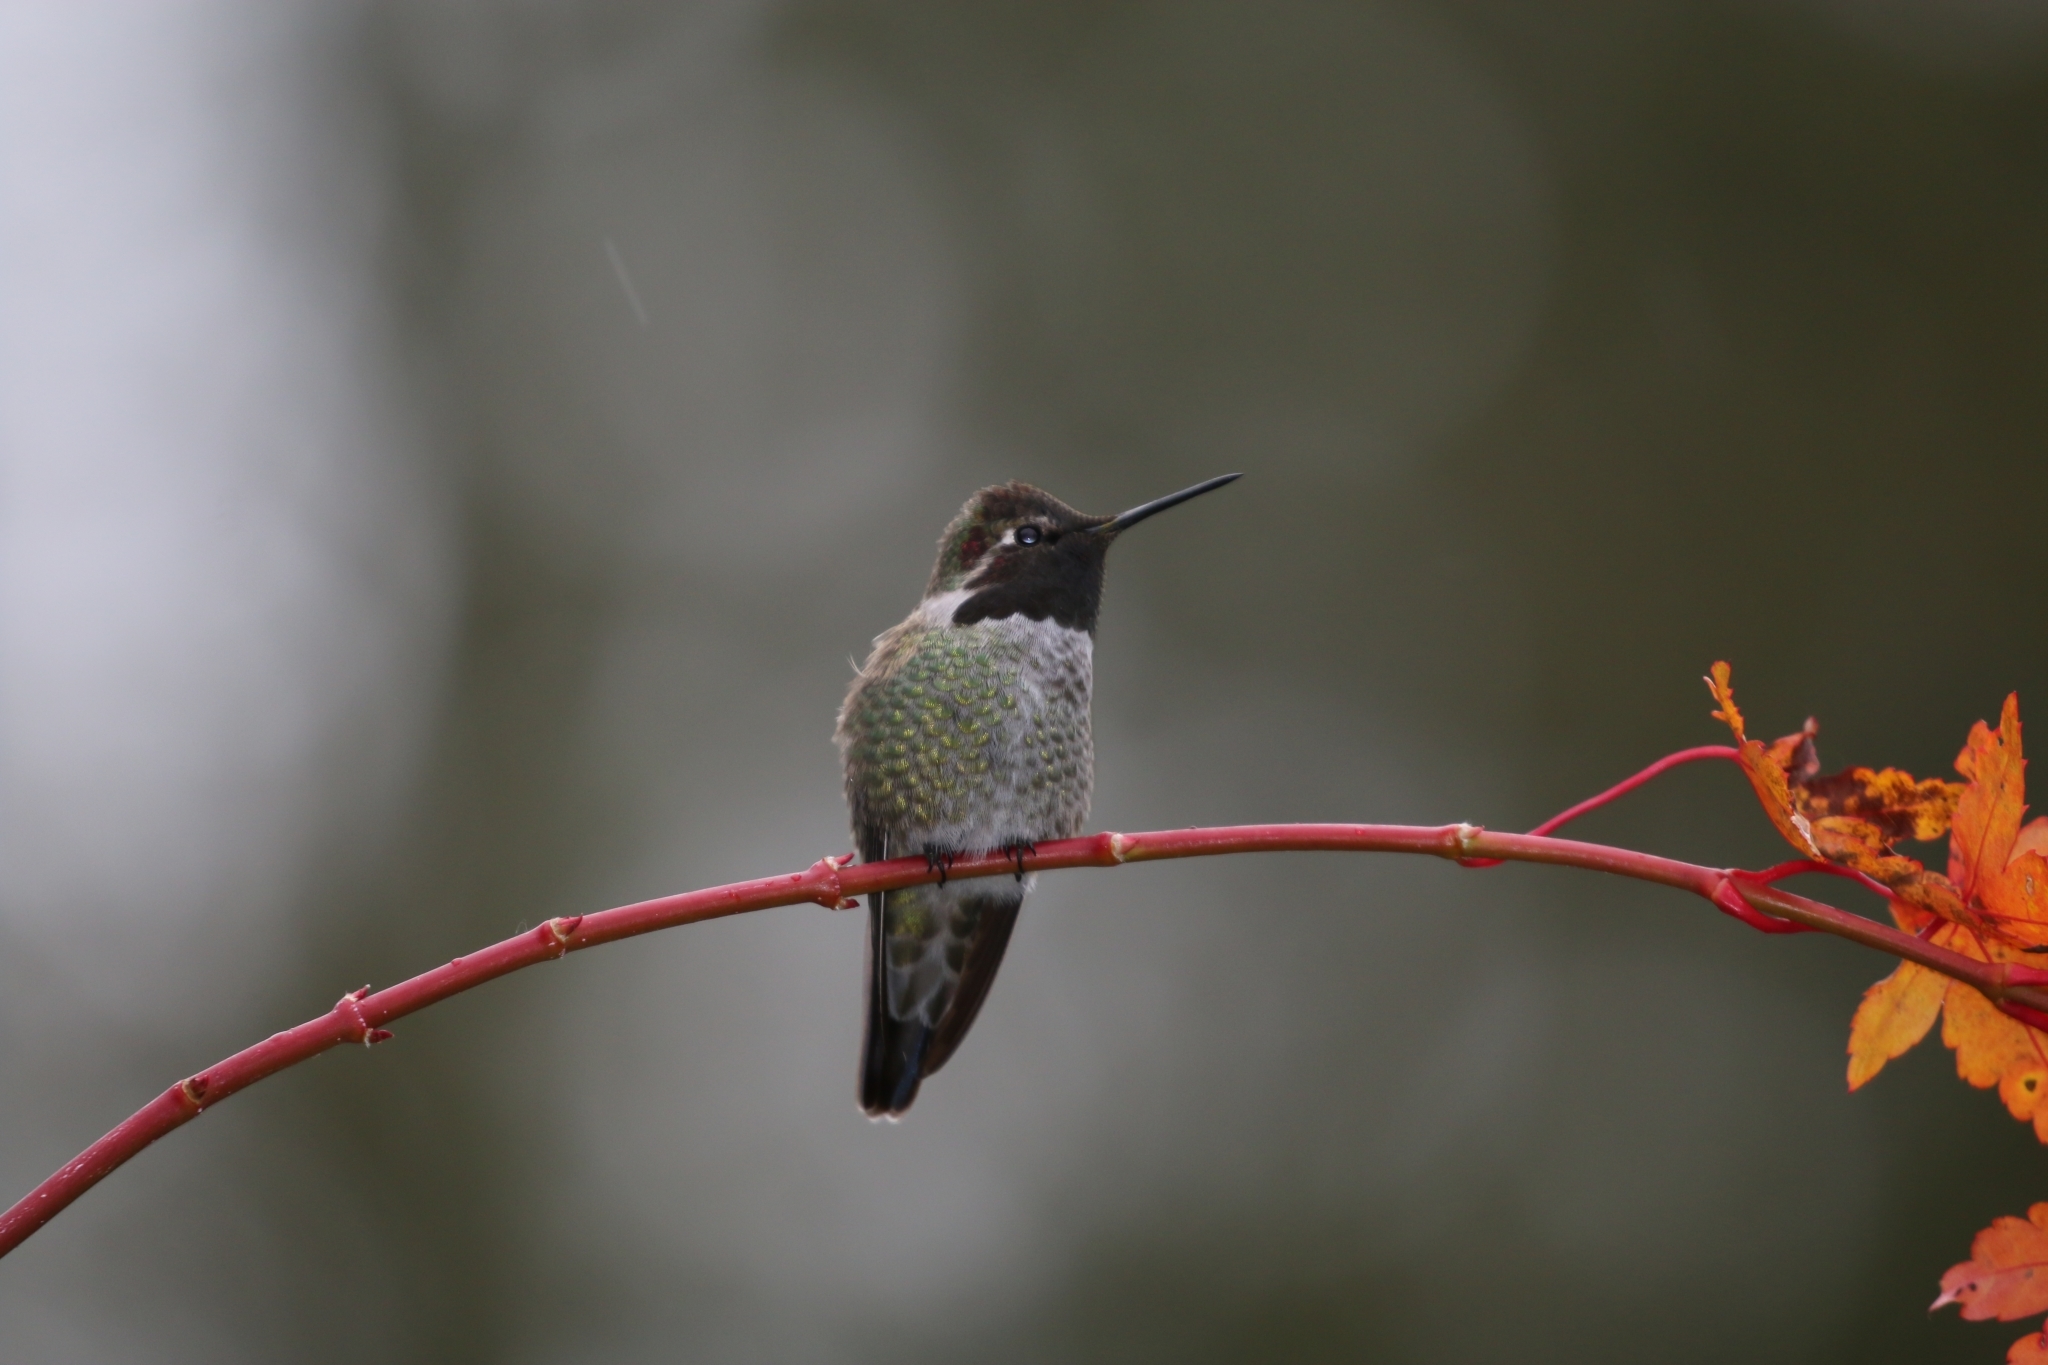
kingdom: Animalia
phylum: Chordata
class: Aves
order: Apodiformes
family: Trochilidae
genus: Calypte
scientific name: Calypte anna
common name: Anna's hummingbird
